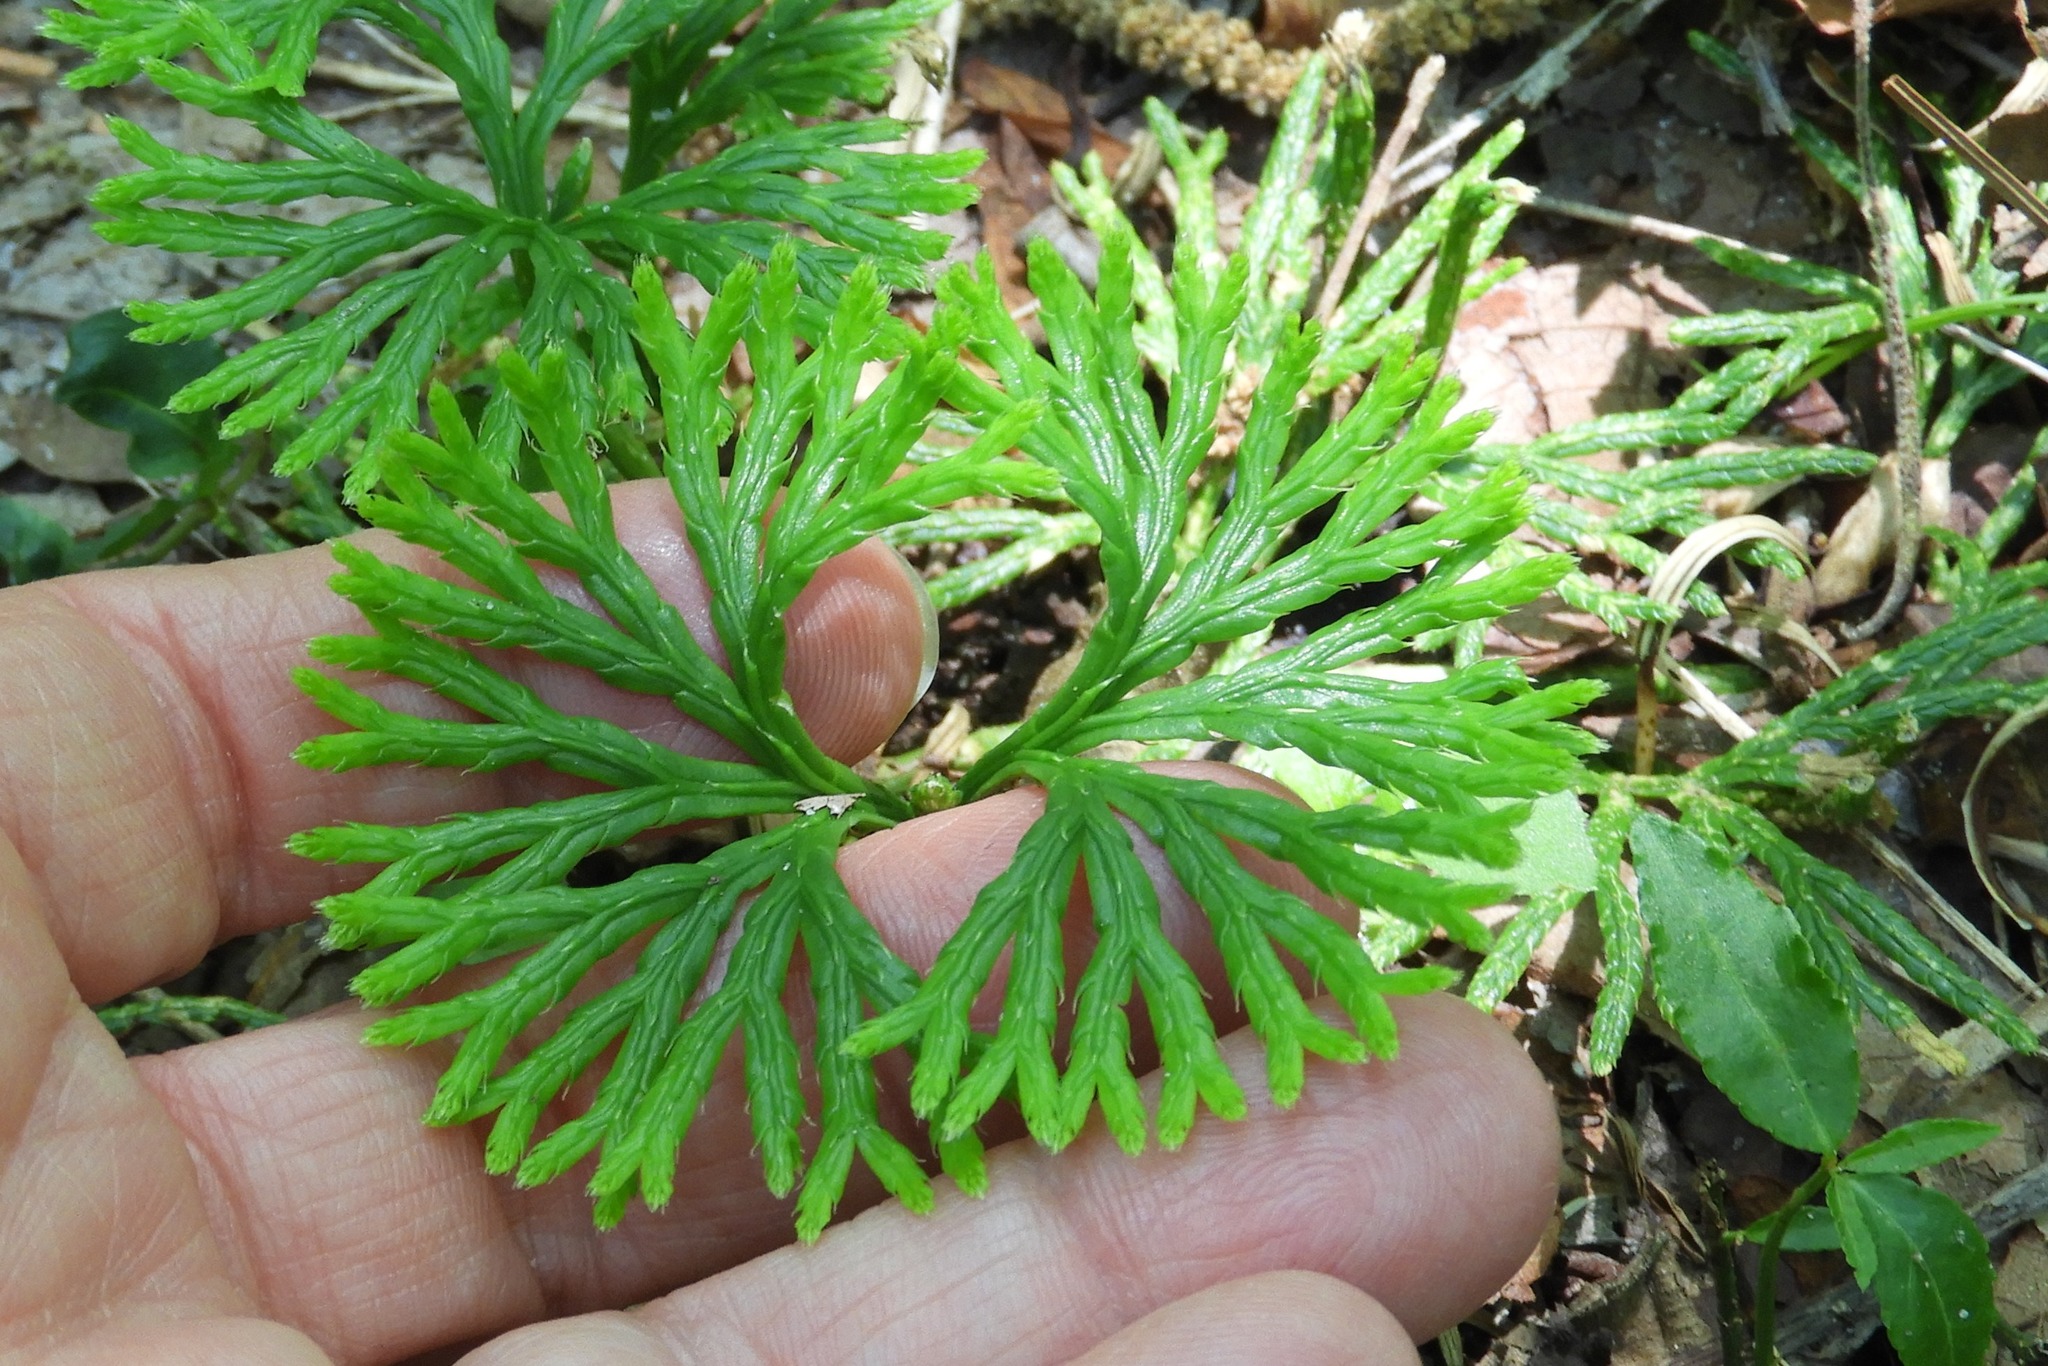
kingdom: Plantae
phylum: Tracheophyta
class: Lycopodiopsida
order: Lycopodiales
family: Lycopodiaceae
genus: Diphasiastrum
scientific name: Diphasiastrum digitatum
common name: Southern running-pine
